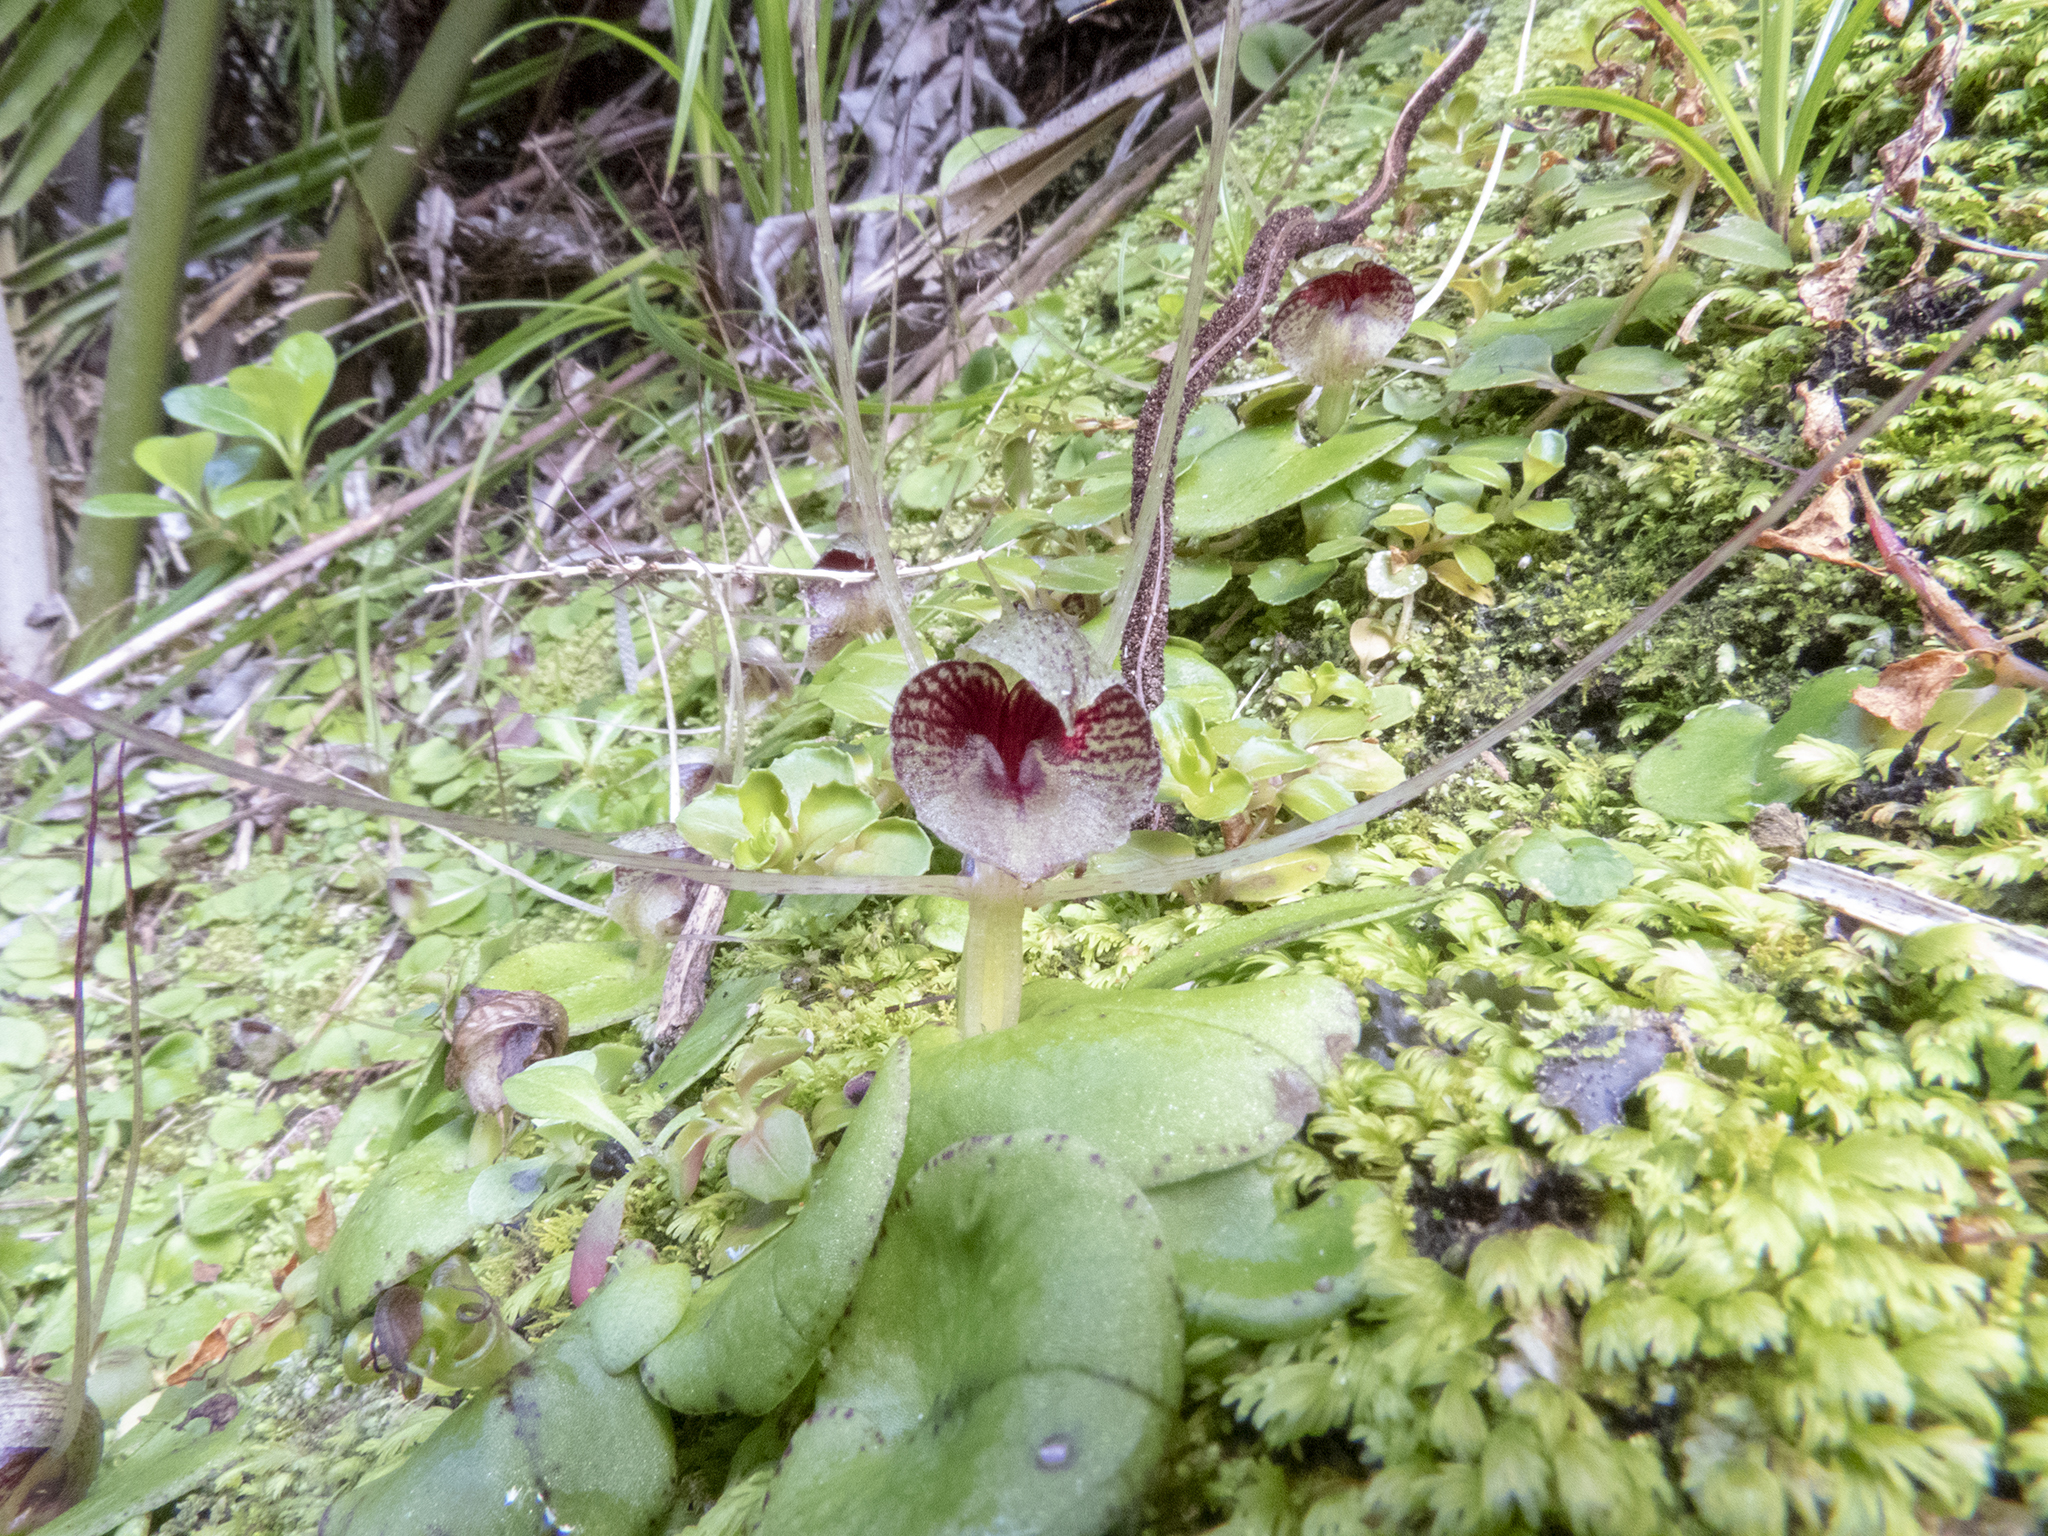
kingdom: Plantae
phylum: Tracheophyta
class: Liliopsida
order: Asparagales
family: Orchidaceae
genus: Corybas
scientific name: Corybas hatchii
